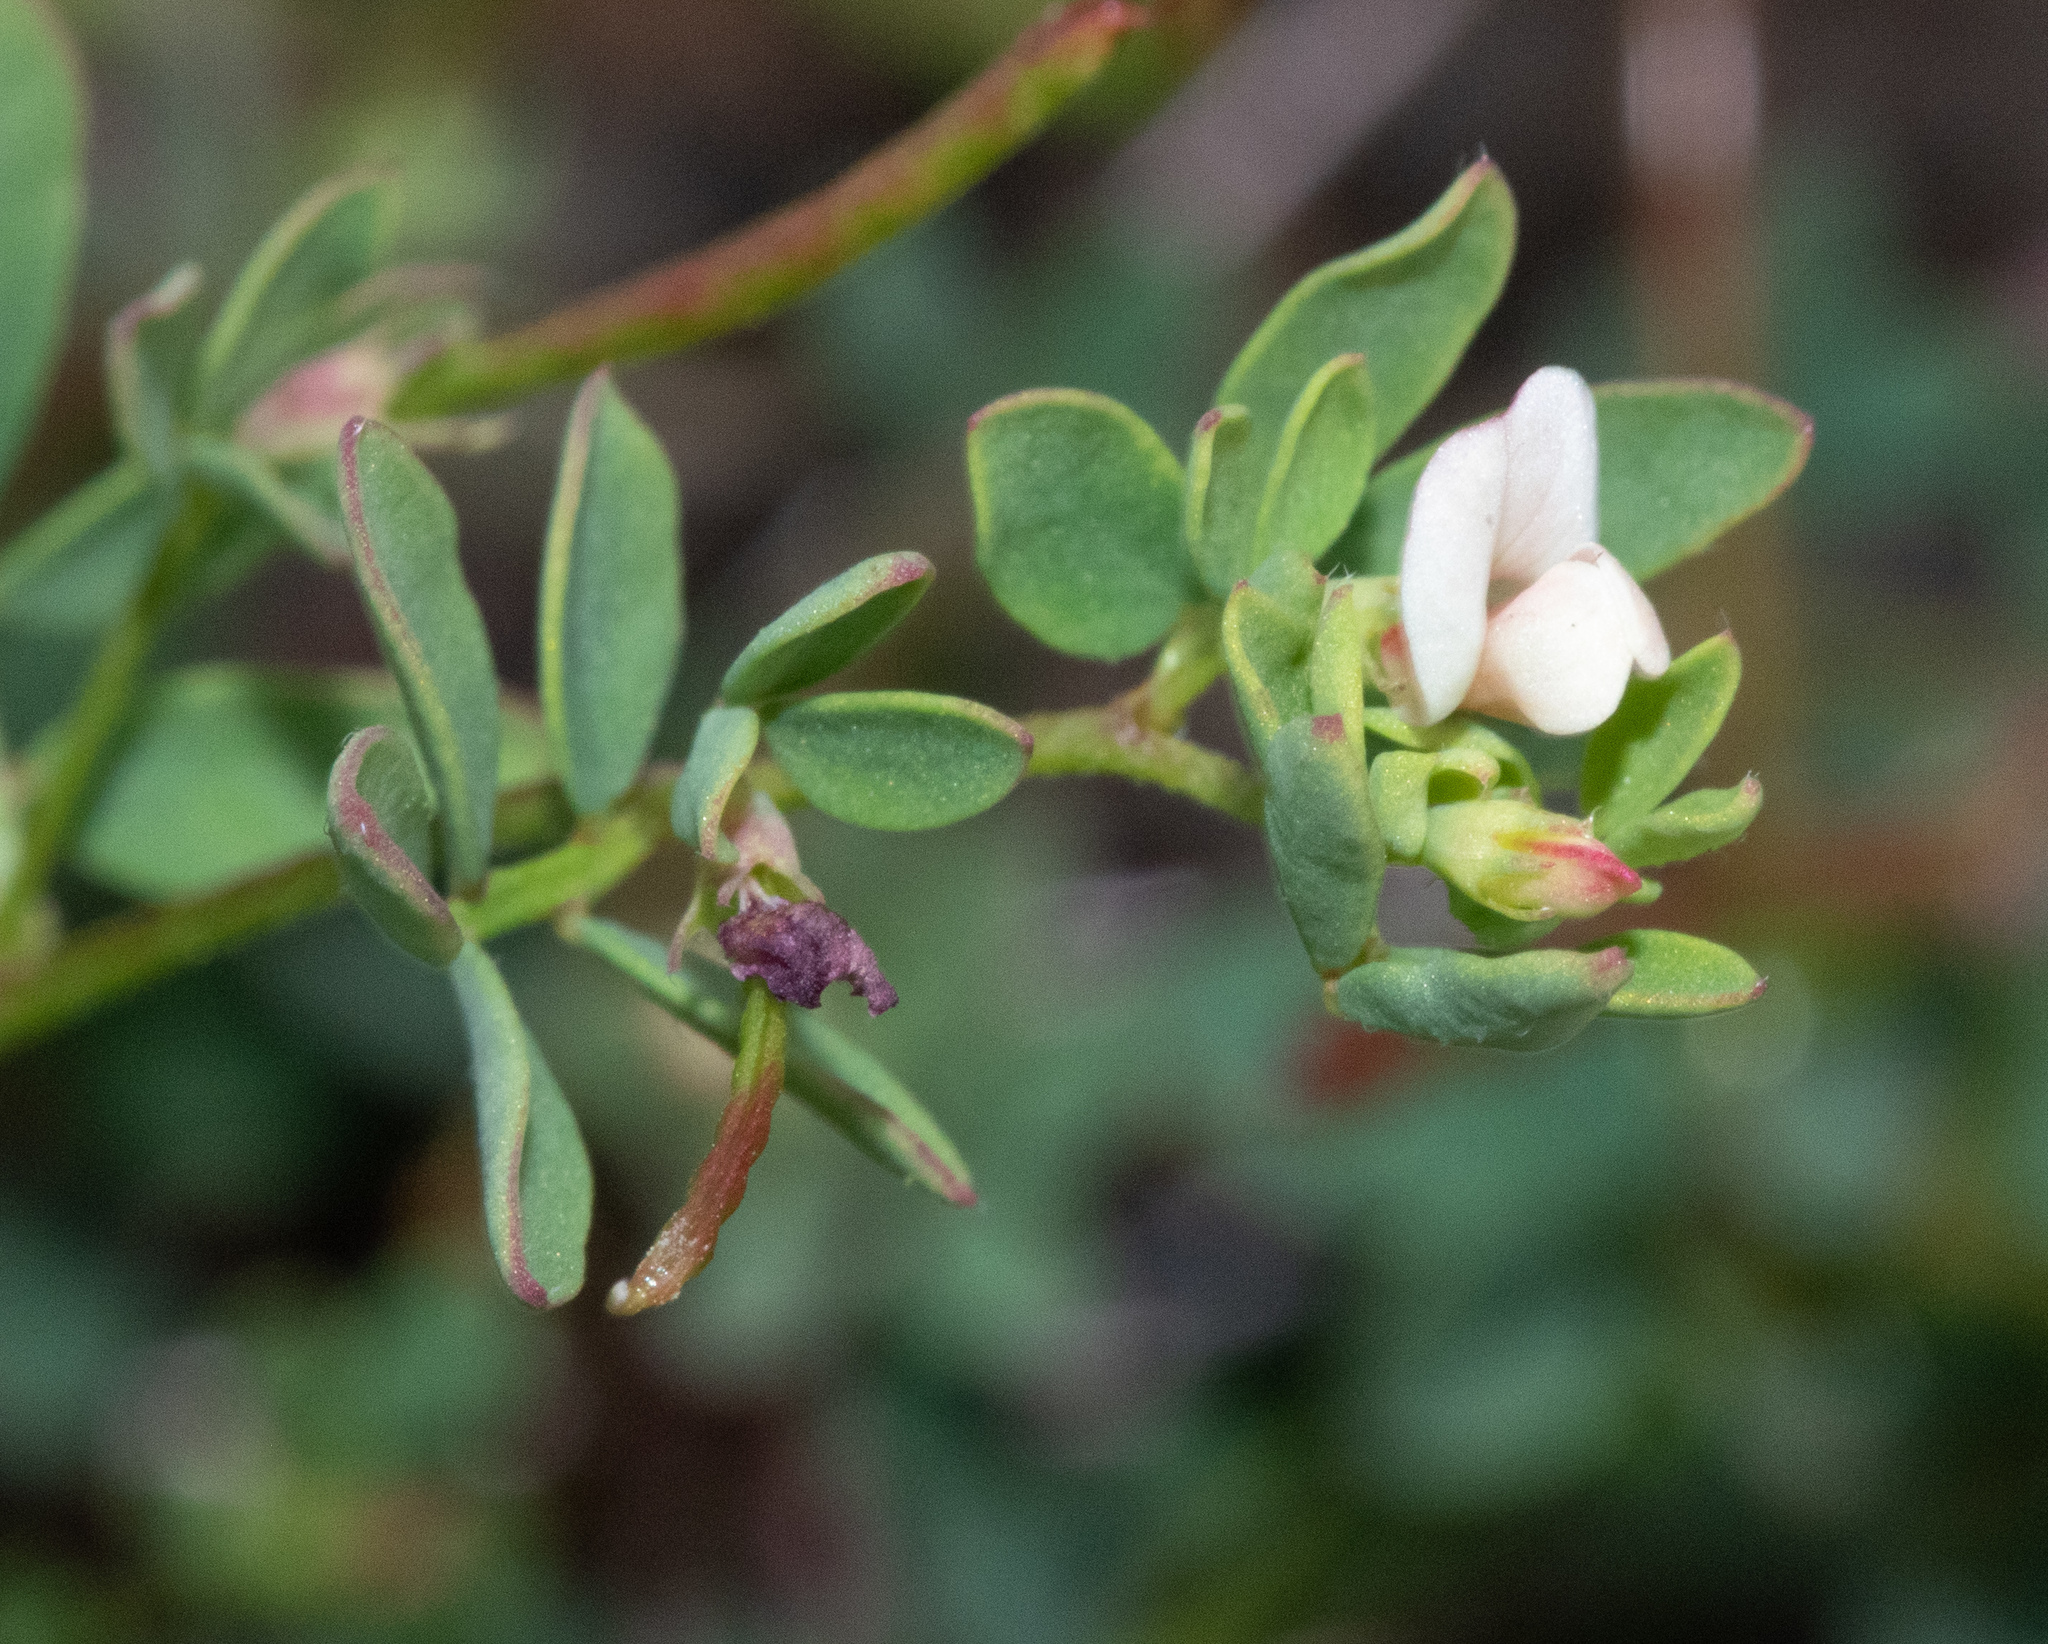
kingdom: Plantae
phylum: Tracheophyta
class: Magnoliopsida
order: Fabales
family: Fabaceae
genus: Acmispon
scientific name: Acmispon parviflorus
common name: Desert deer-vetch
